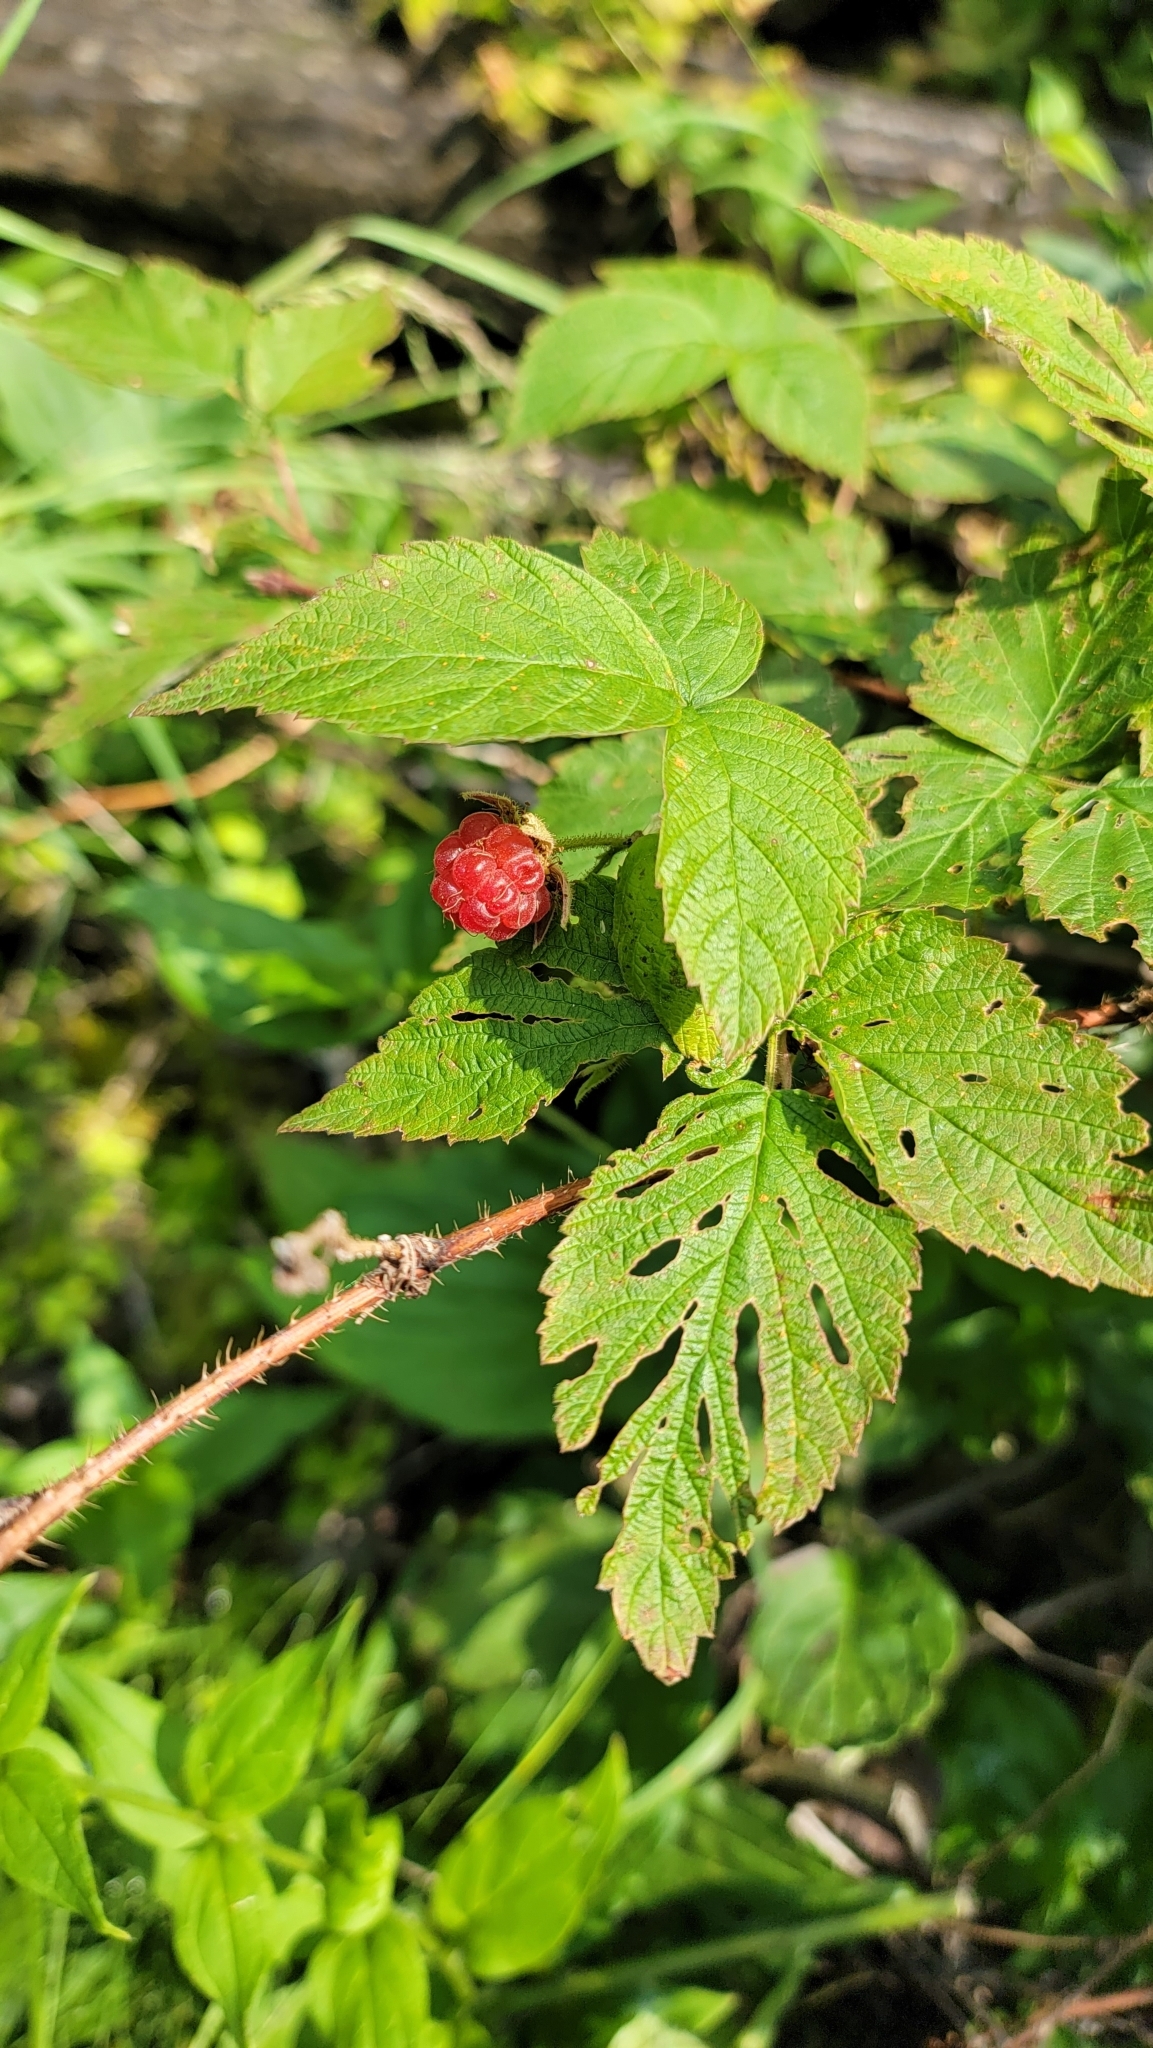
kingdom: Plantae
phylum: Tracheophyta
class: Magnoliopsida
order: Rosales
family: Rosaceae
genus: Rubus
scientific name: Rubus idaeus
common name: Raspberry
